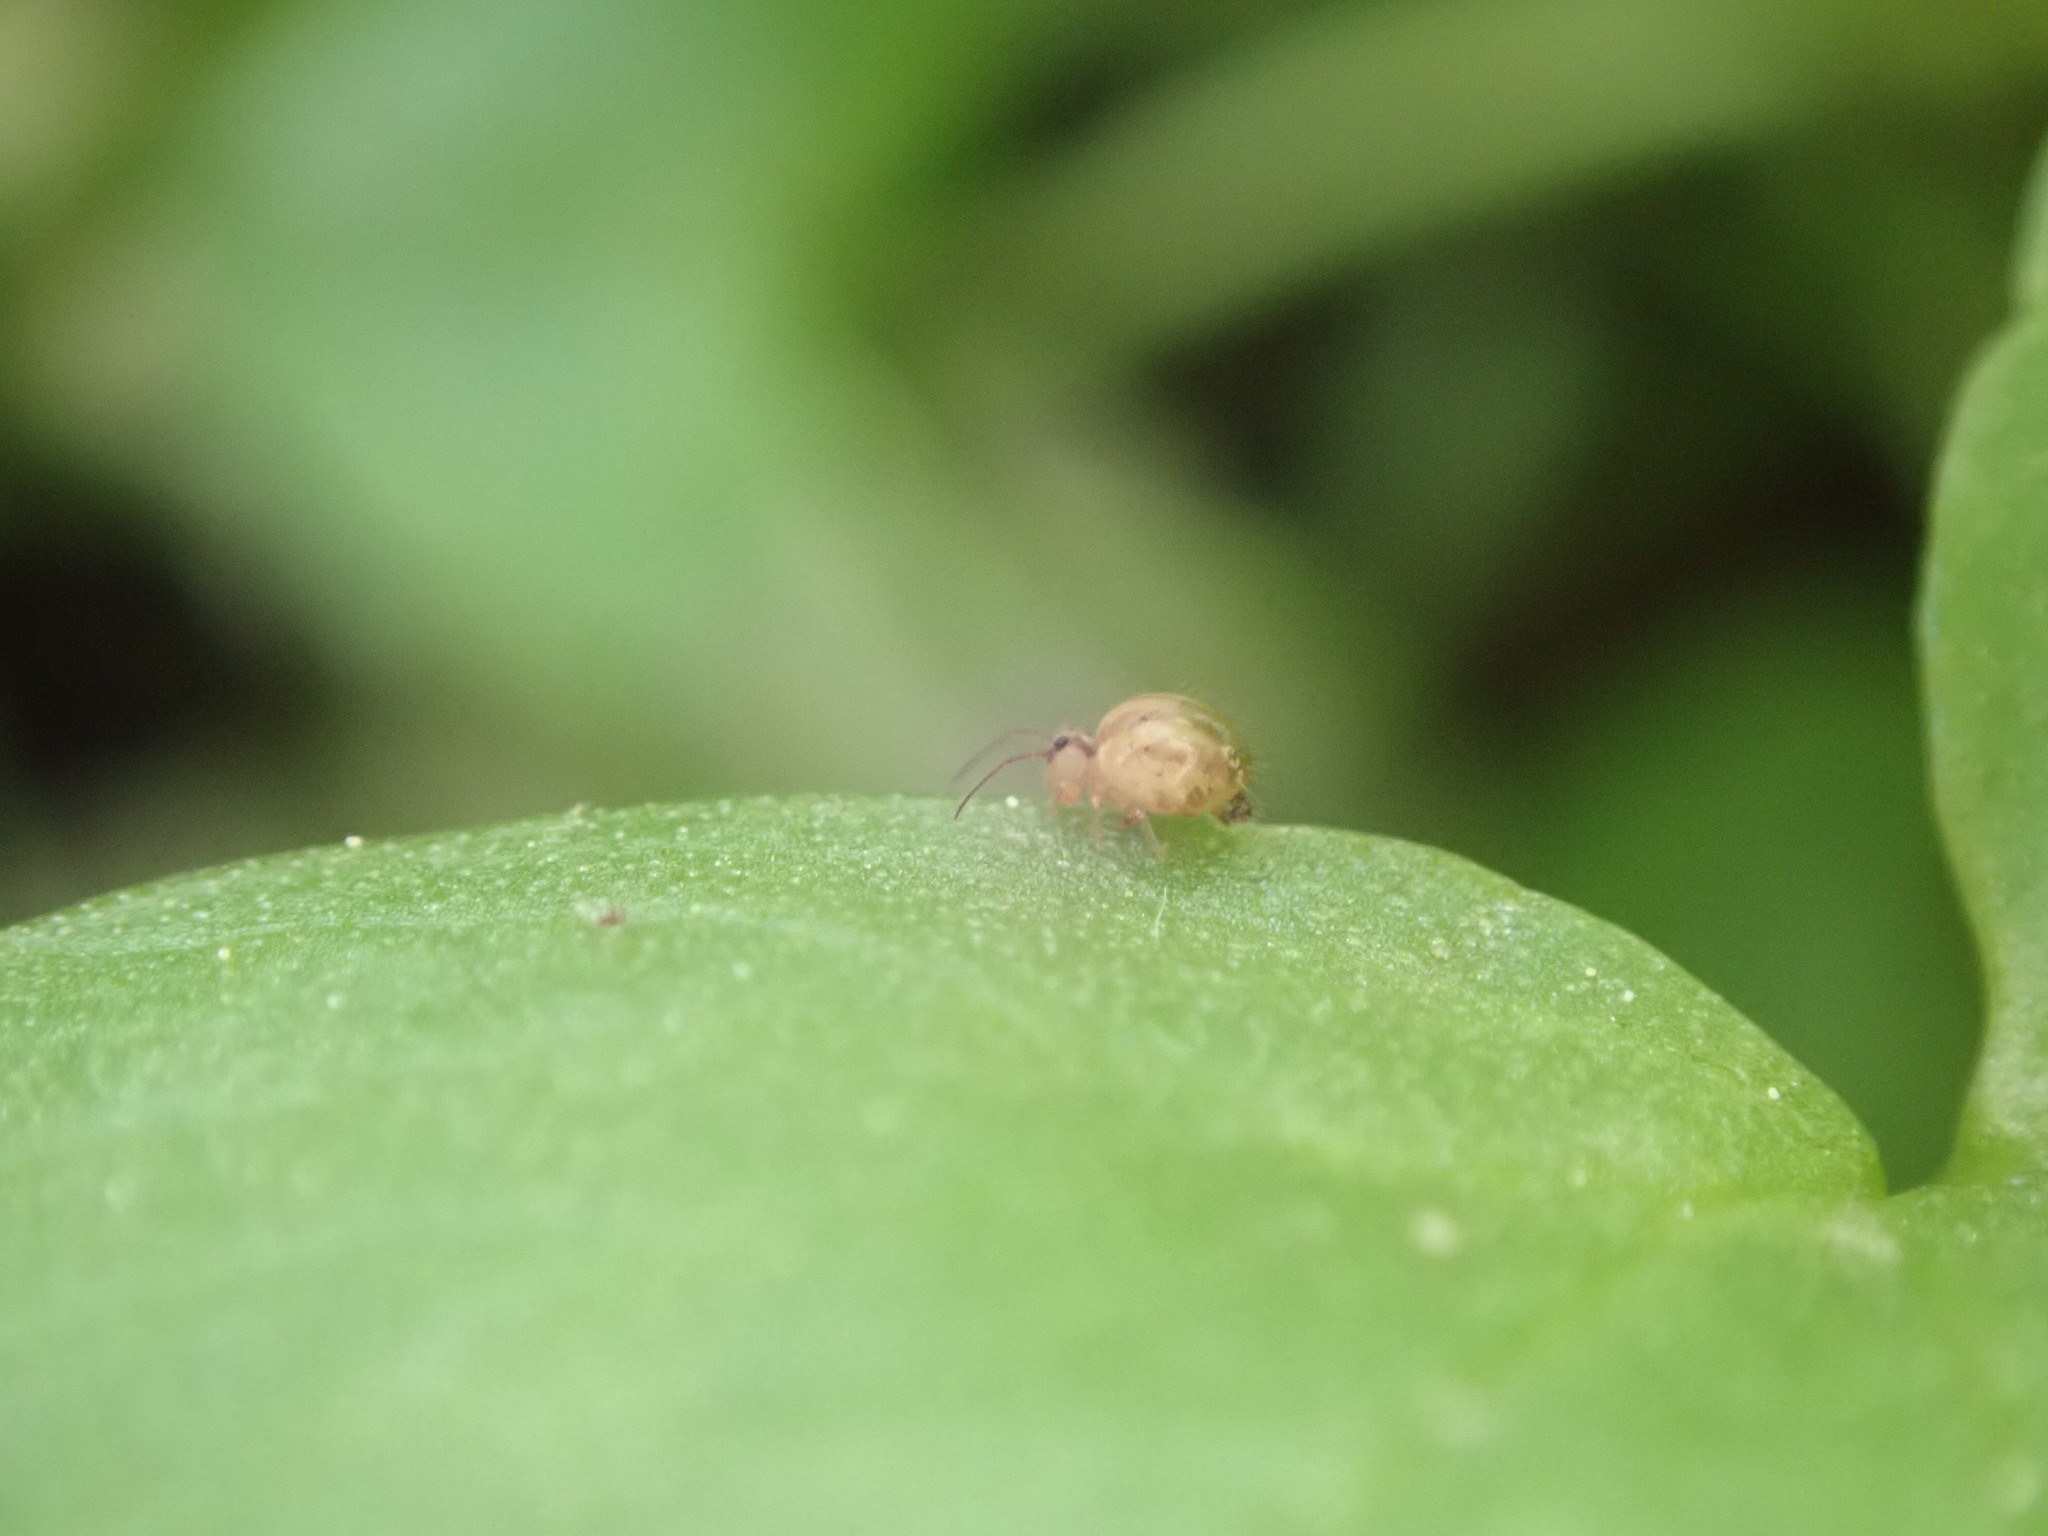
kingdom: Animalia
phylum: Arthropoda
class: Collembola
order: Symphypleona
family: Sminthuridae
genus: Sminthurus
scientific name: Sminthurus mencenbergae
